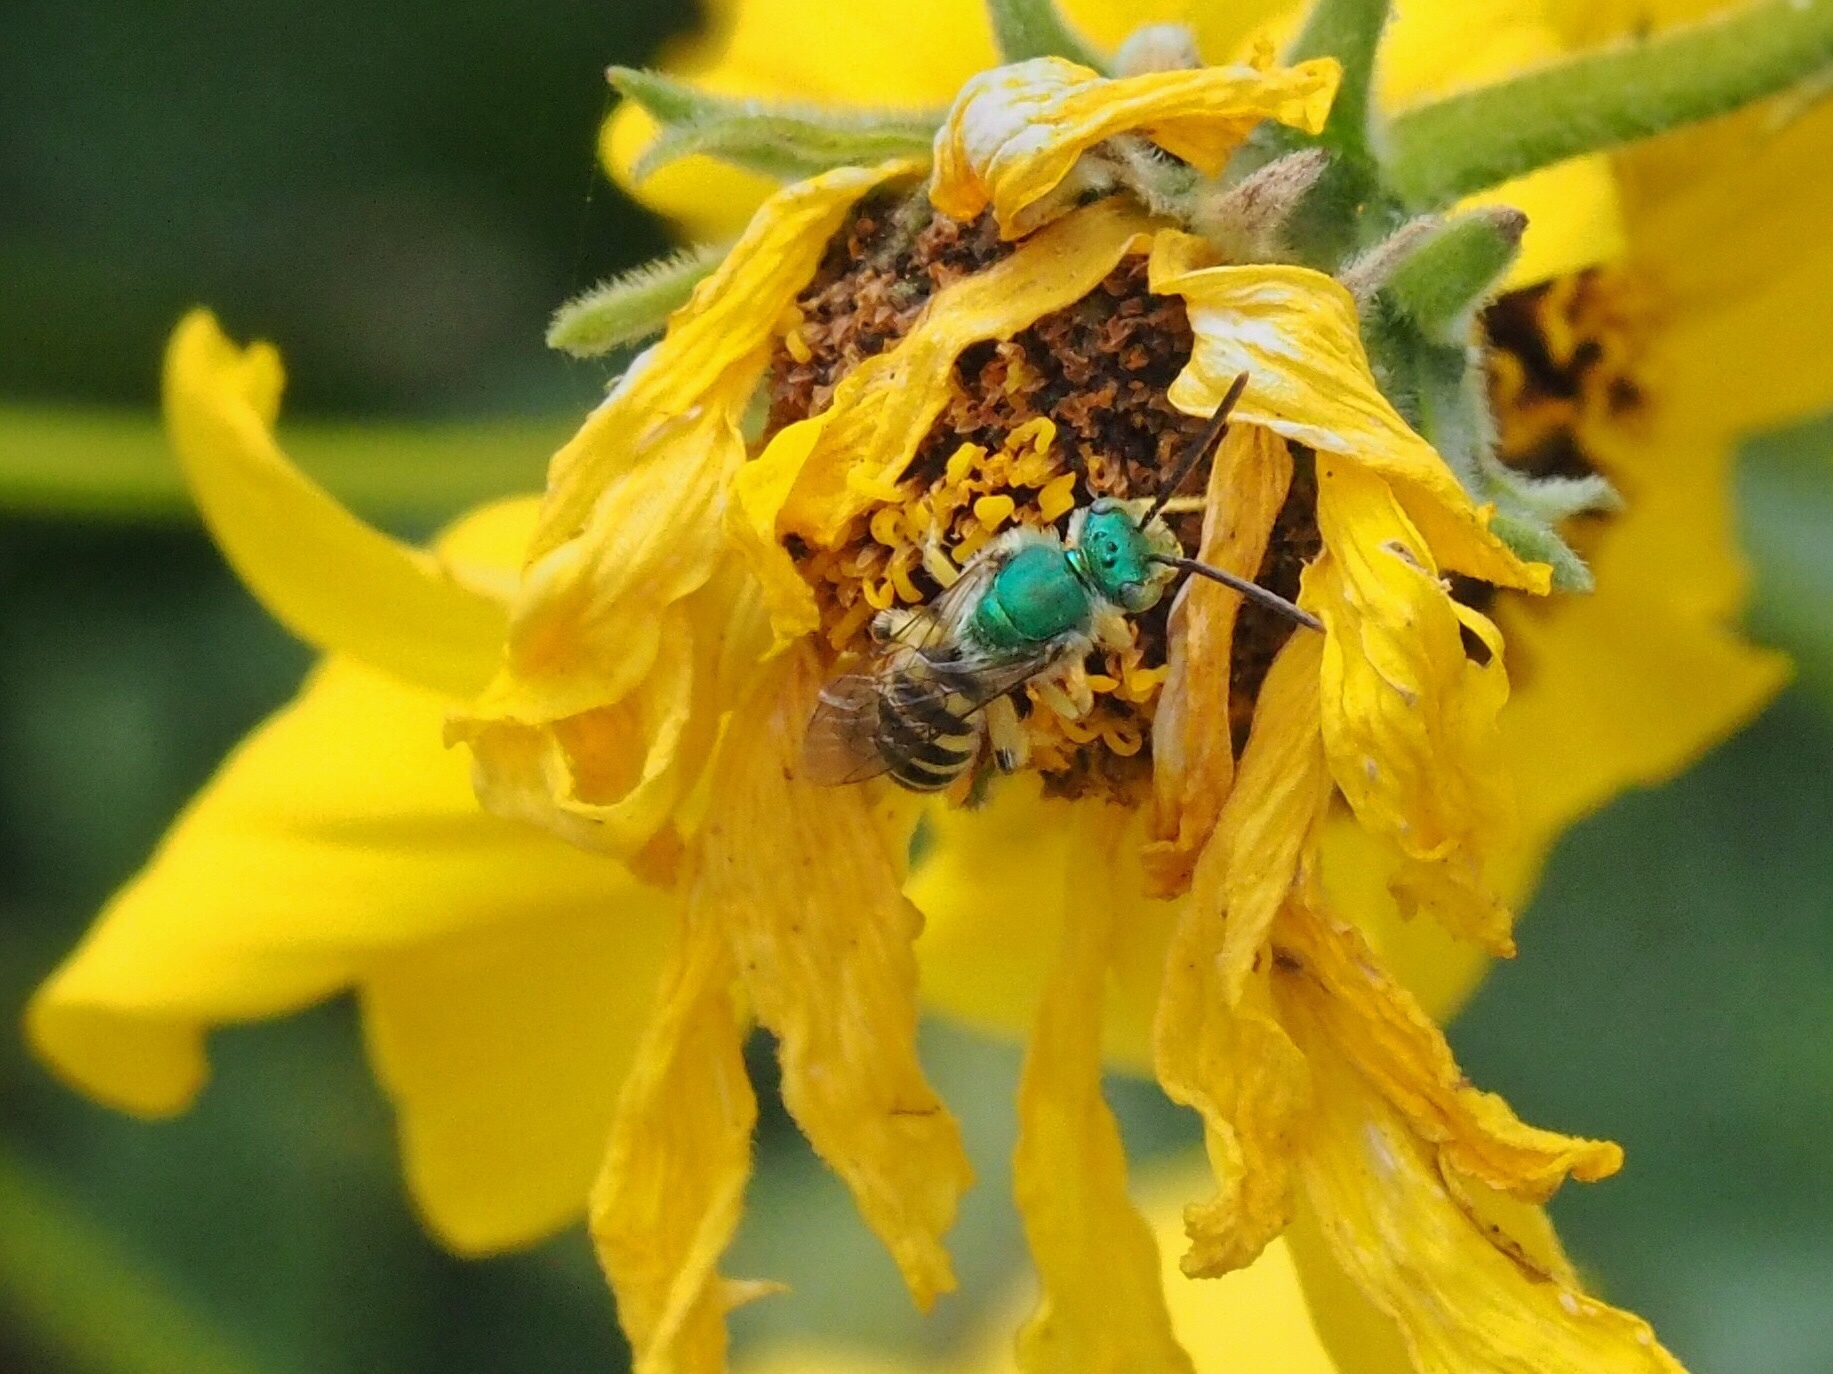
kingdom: Animalia
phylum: Arthropoda
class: Insecta
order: Hymenoptera
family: Halictidae
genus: Agapostemon
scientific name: Agapostemon texanus
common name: Texas striped sweat bee
